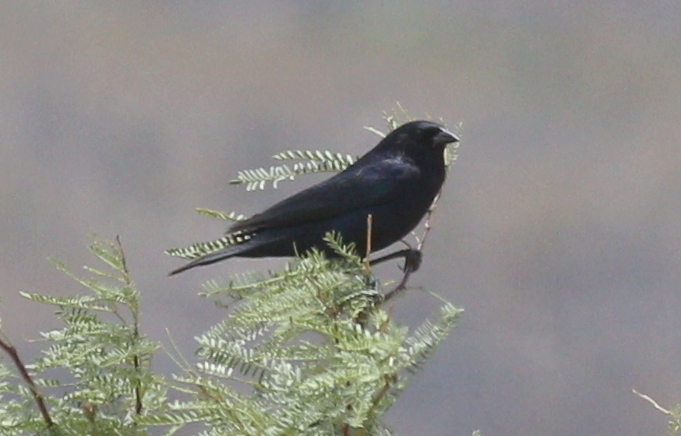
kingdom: Animalia
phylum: Chordata
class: Aves
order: Passeriformes
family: Icteridae
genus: Molothrus
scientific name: Molothrus bonariensis
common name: Shiny cowbird
